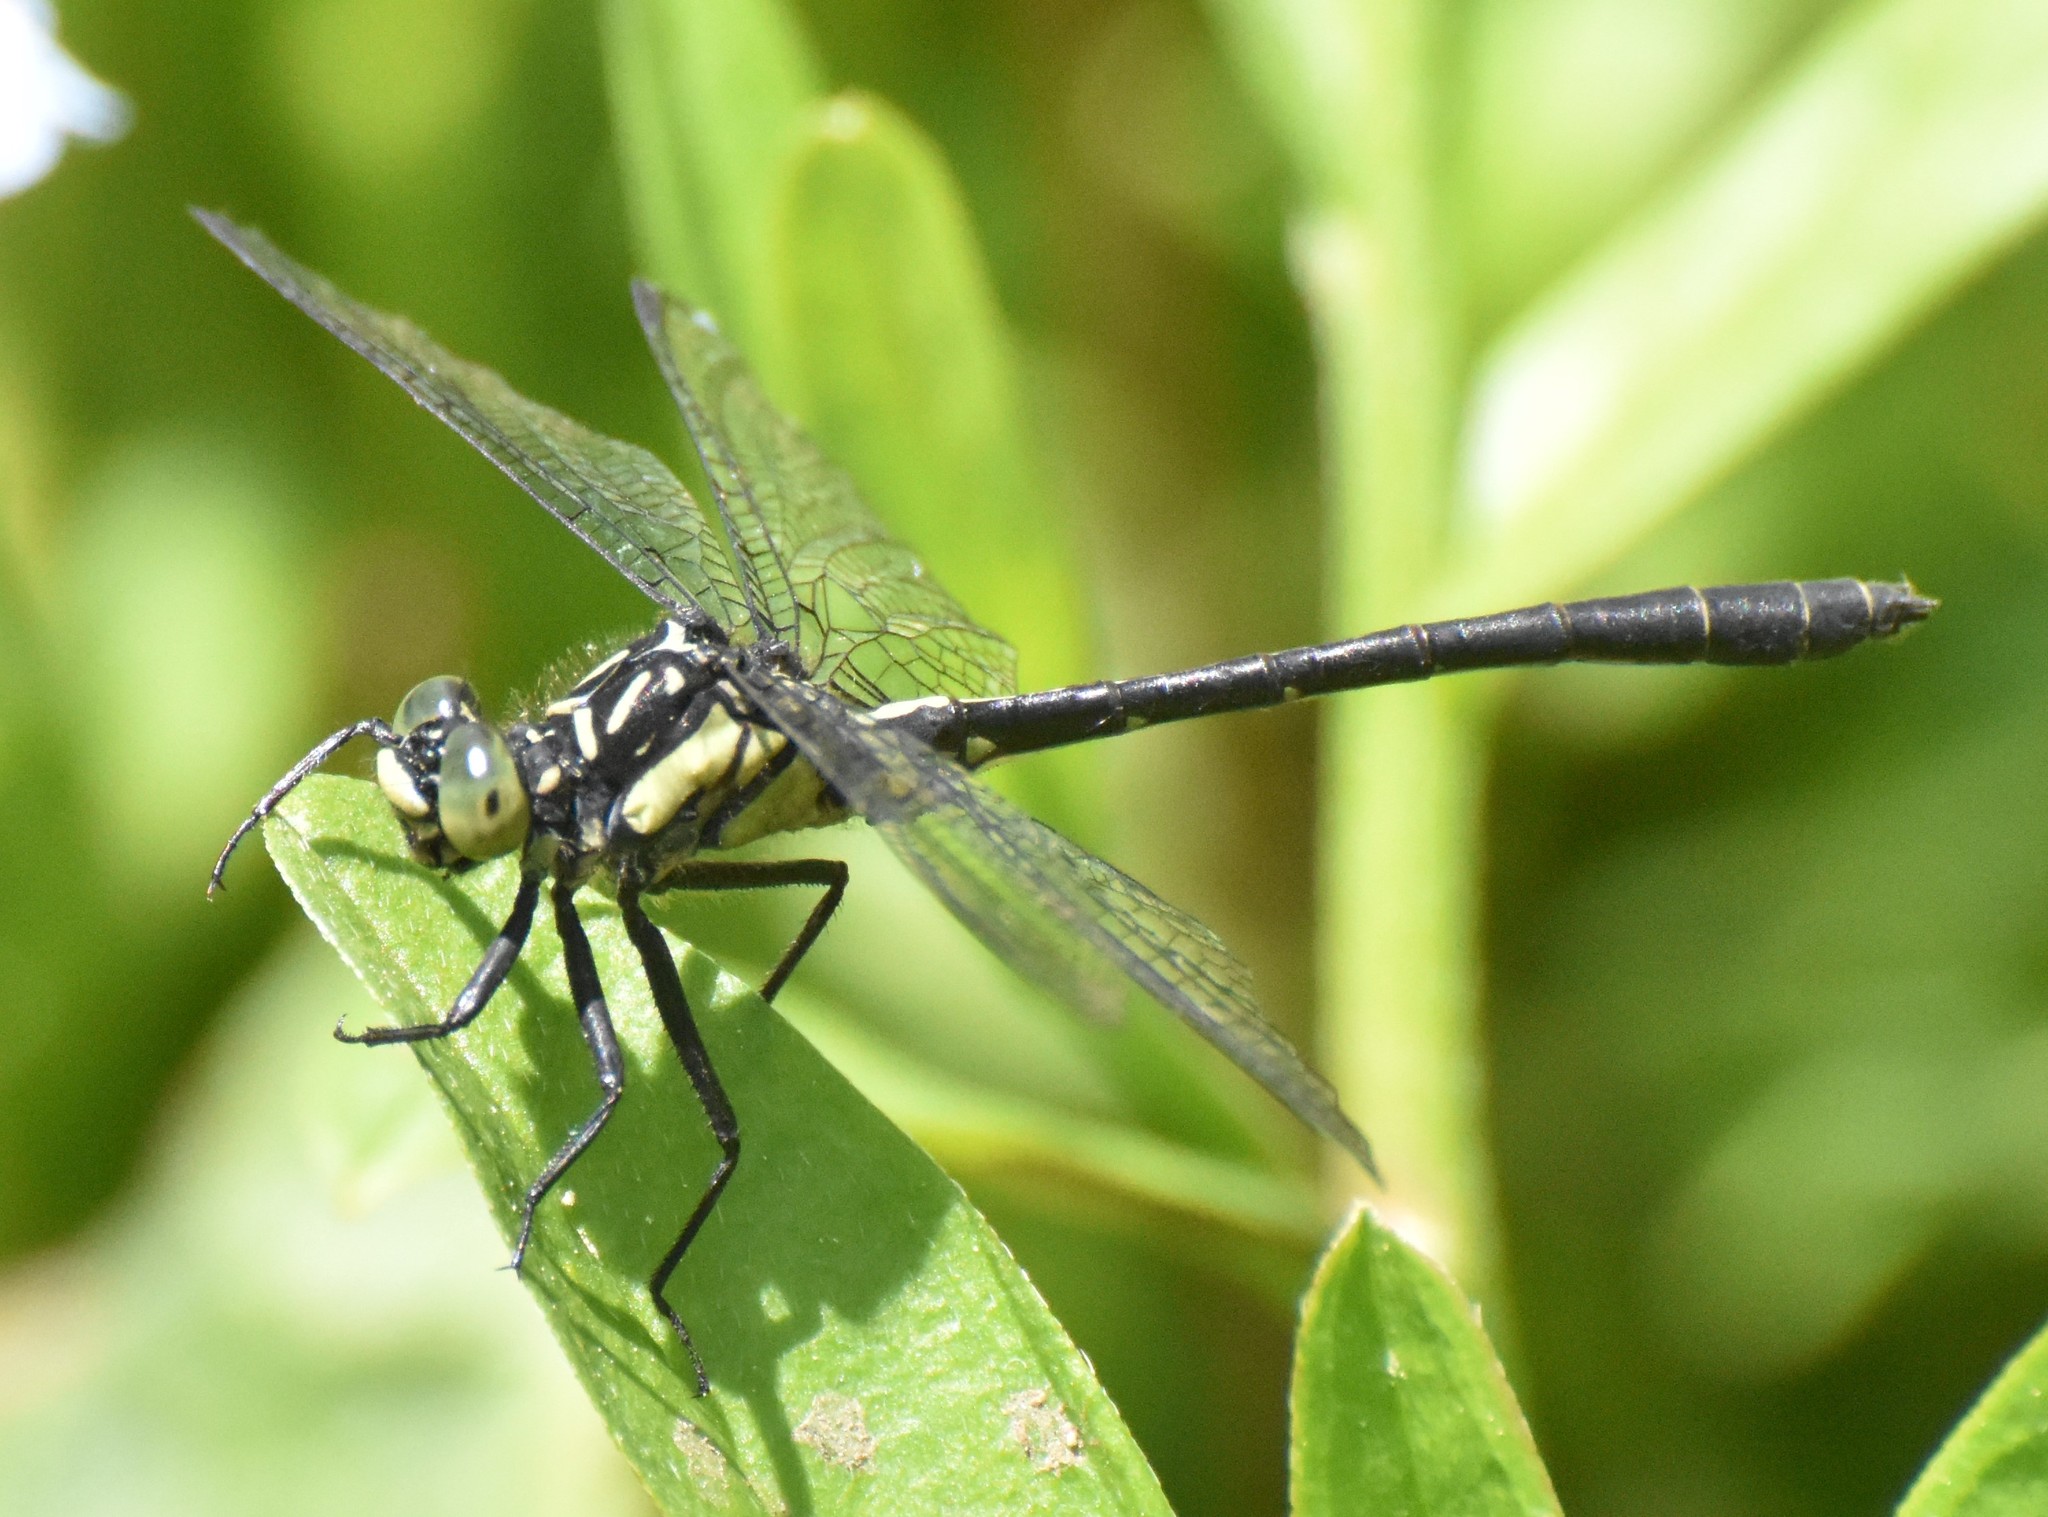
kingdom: Animalia
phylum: Arthropoda
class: Insecta
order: Odonata
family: Gomphidae
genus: Lanthus
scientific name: Lanthus parvulus
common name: Northern pygmy clubtail
